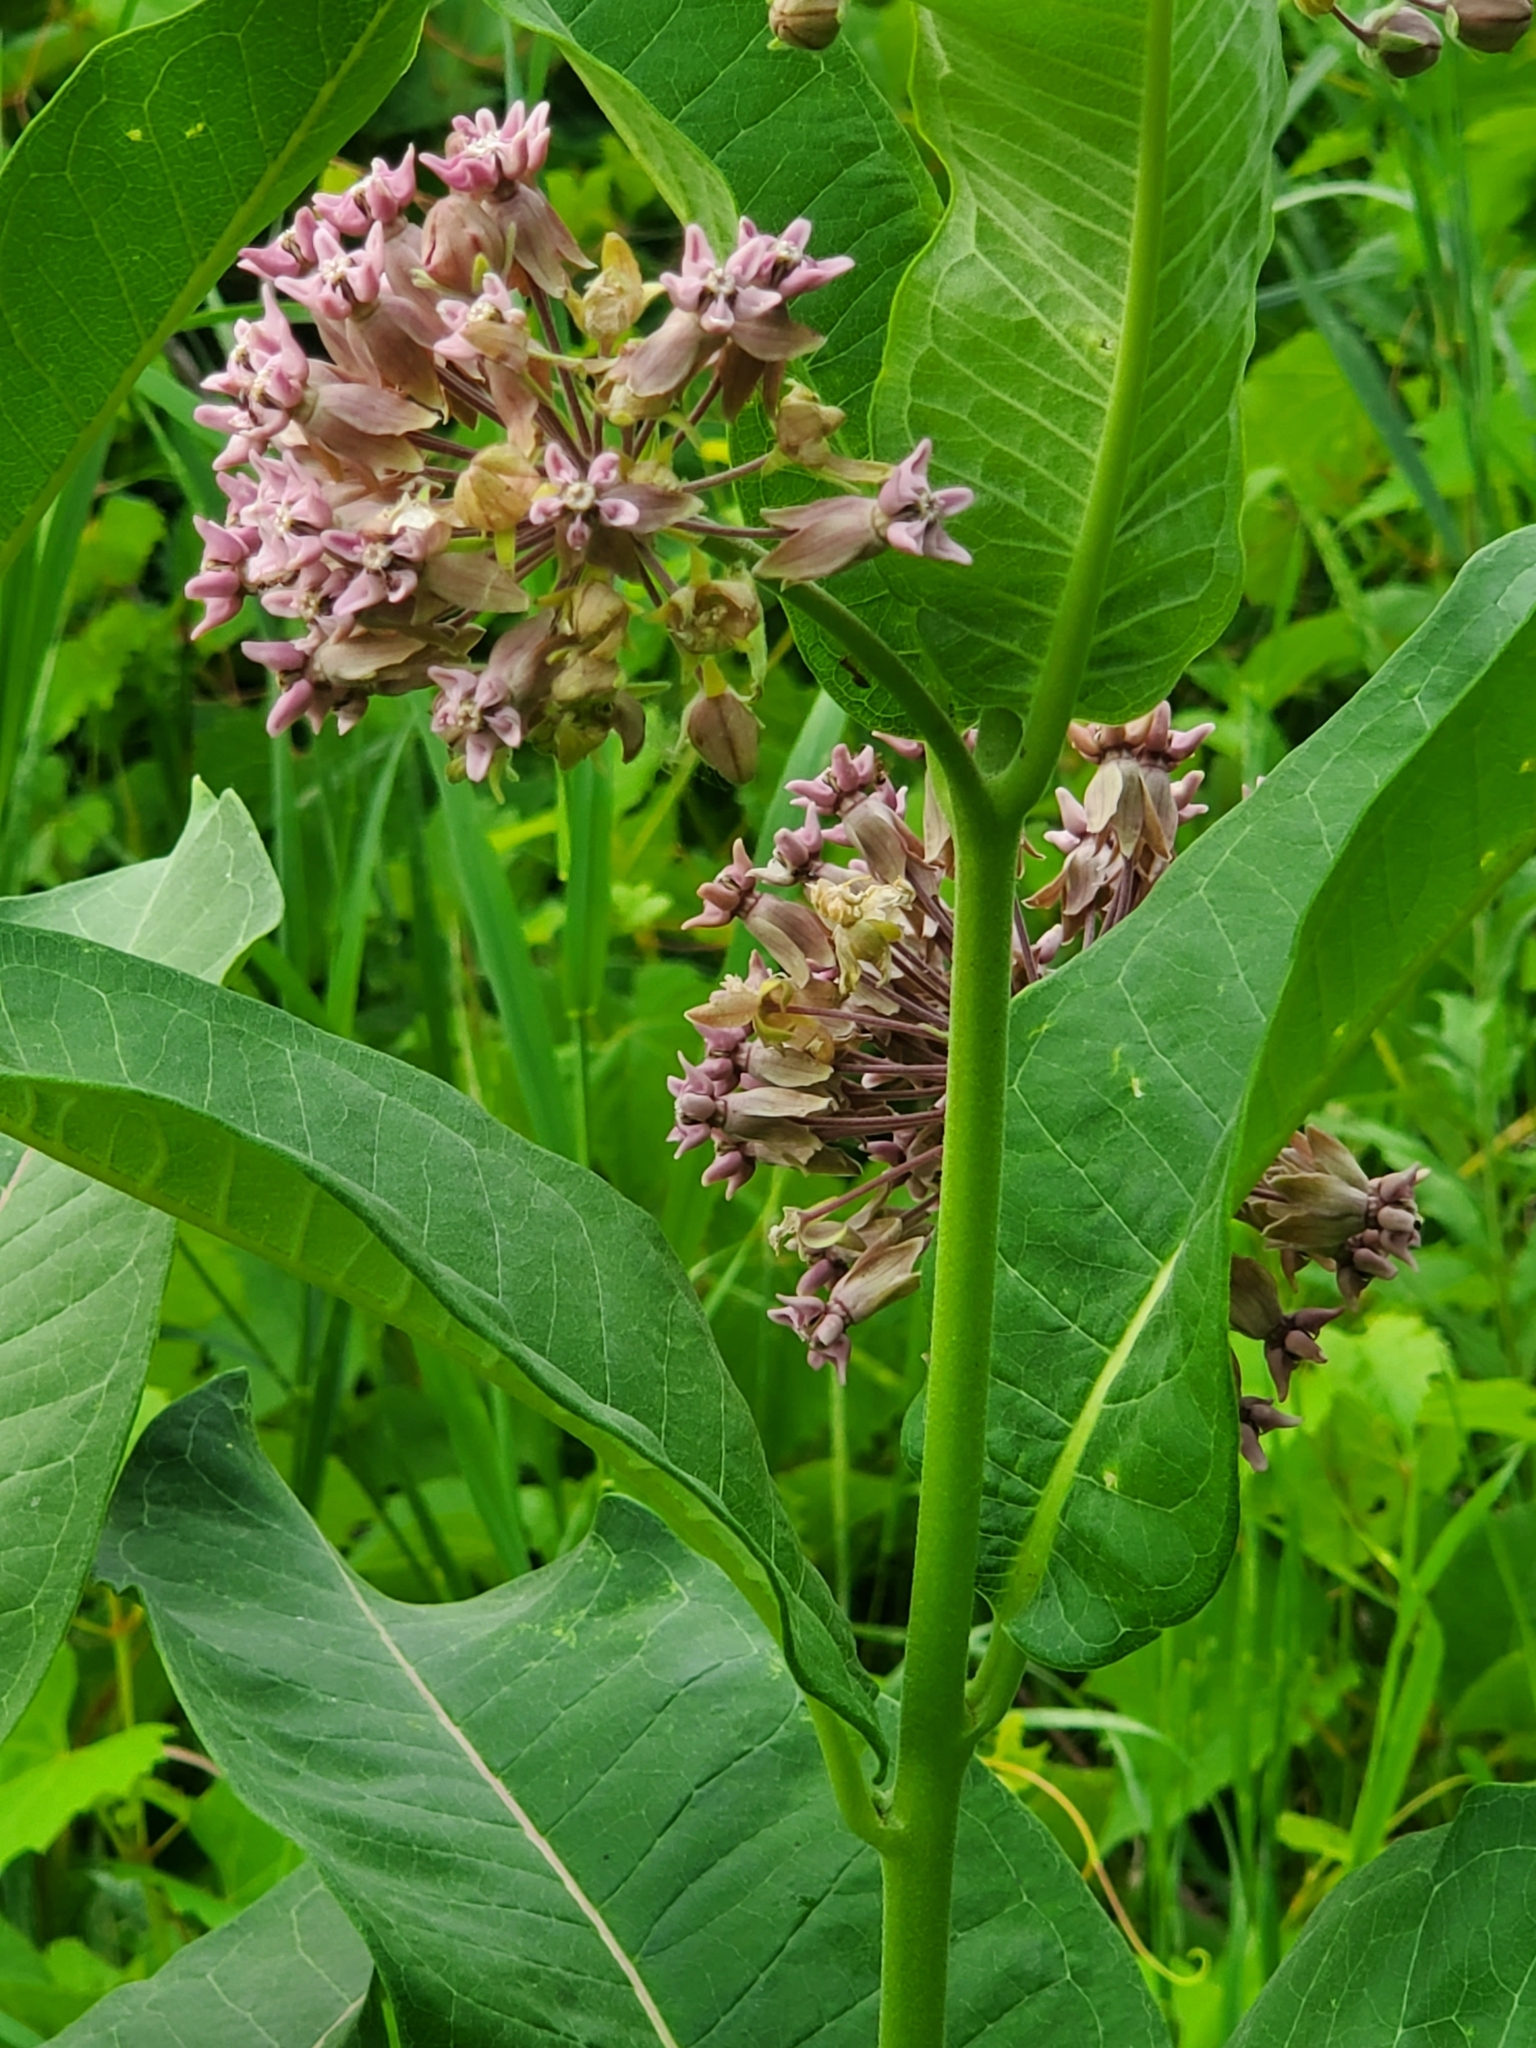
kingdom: Plantae
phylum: Tracheophyta
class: Magnoliopsida
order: Gentianales
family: Apocynaceae
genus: Asclepias
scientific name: Asclepias syriaca
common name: Common milkweed
